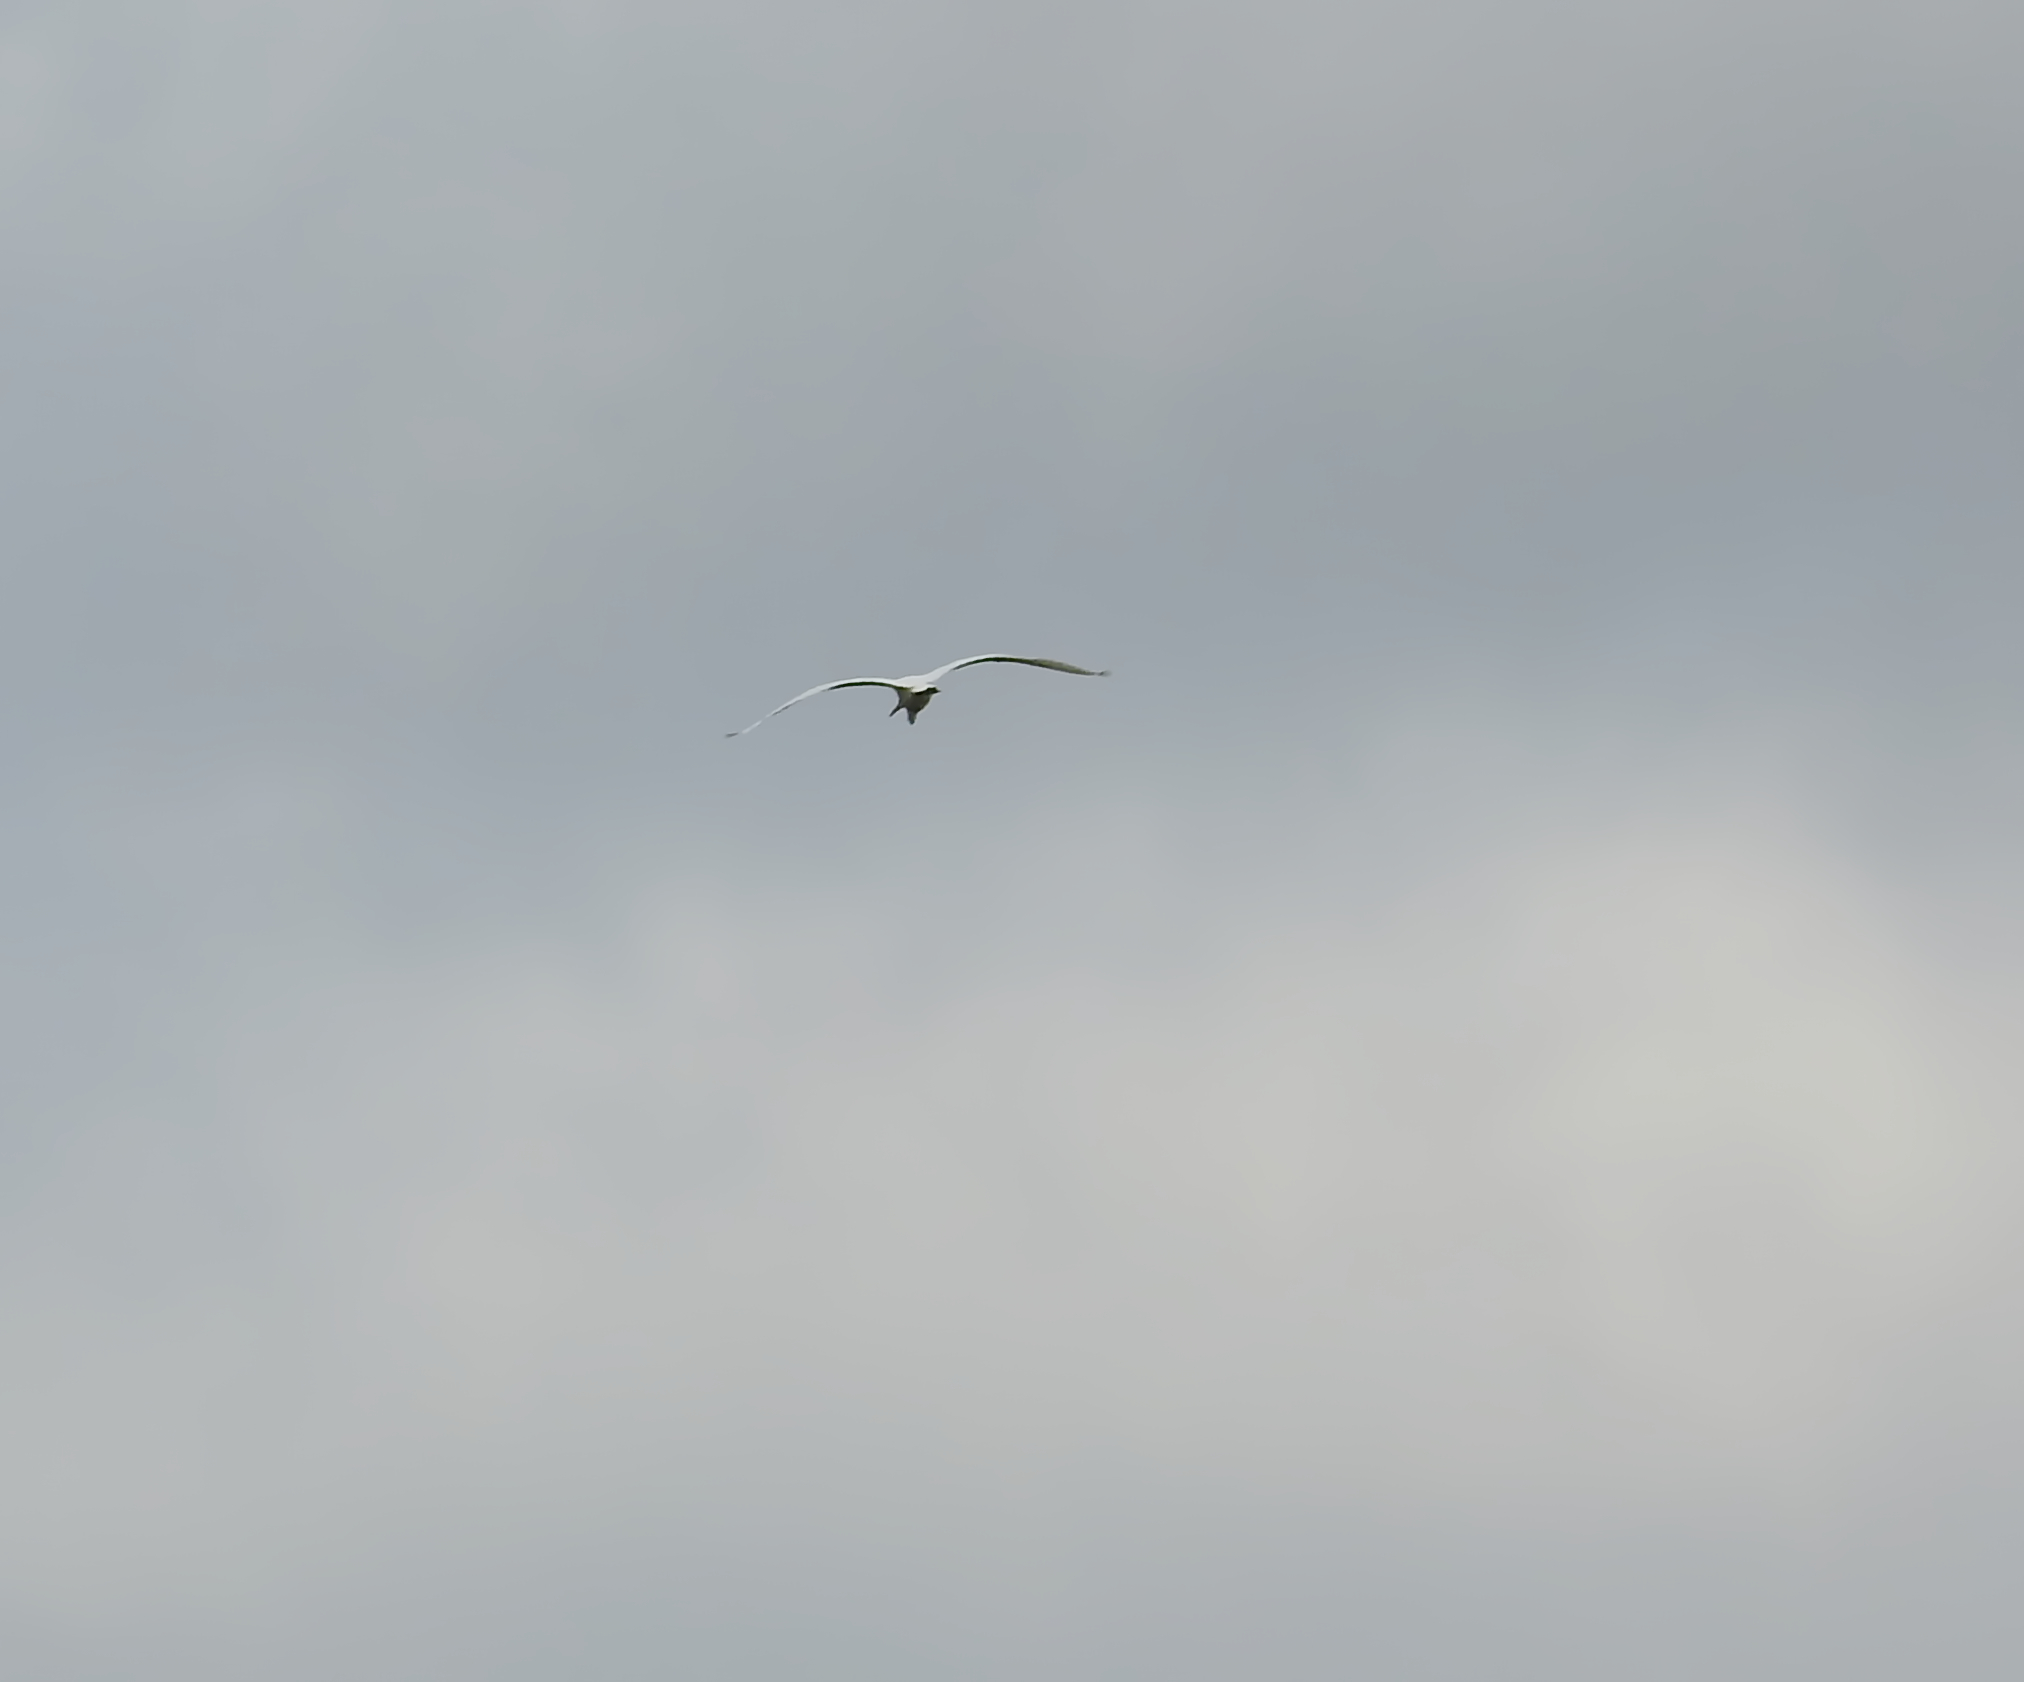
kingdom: Animalia
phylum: Chordata
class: Aves
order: Pelecaniformes
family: Ardeidae
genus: Ardea
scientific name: Ardea alba
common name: Great egret
